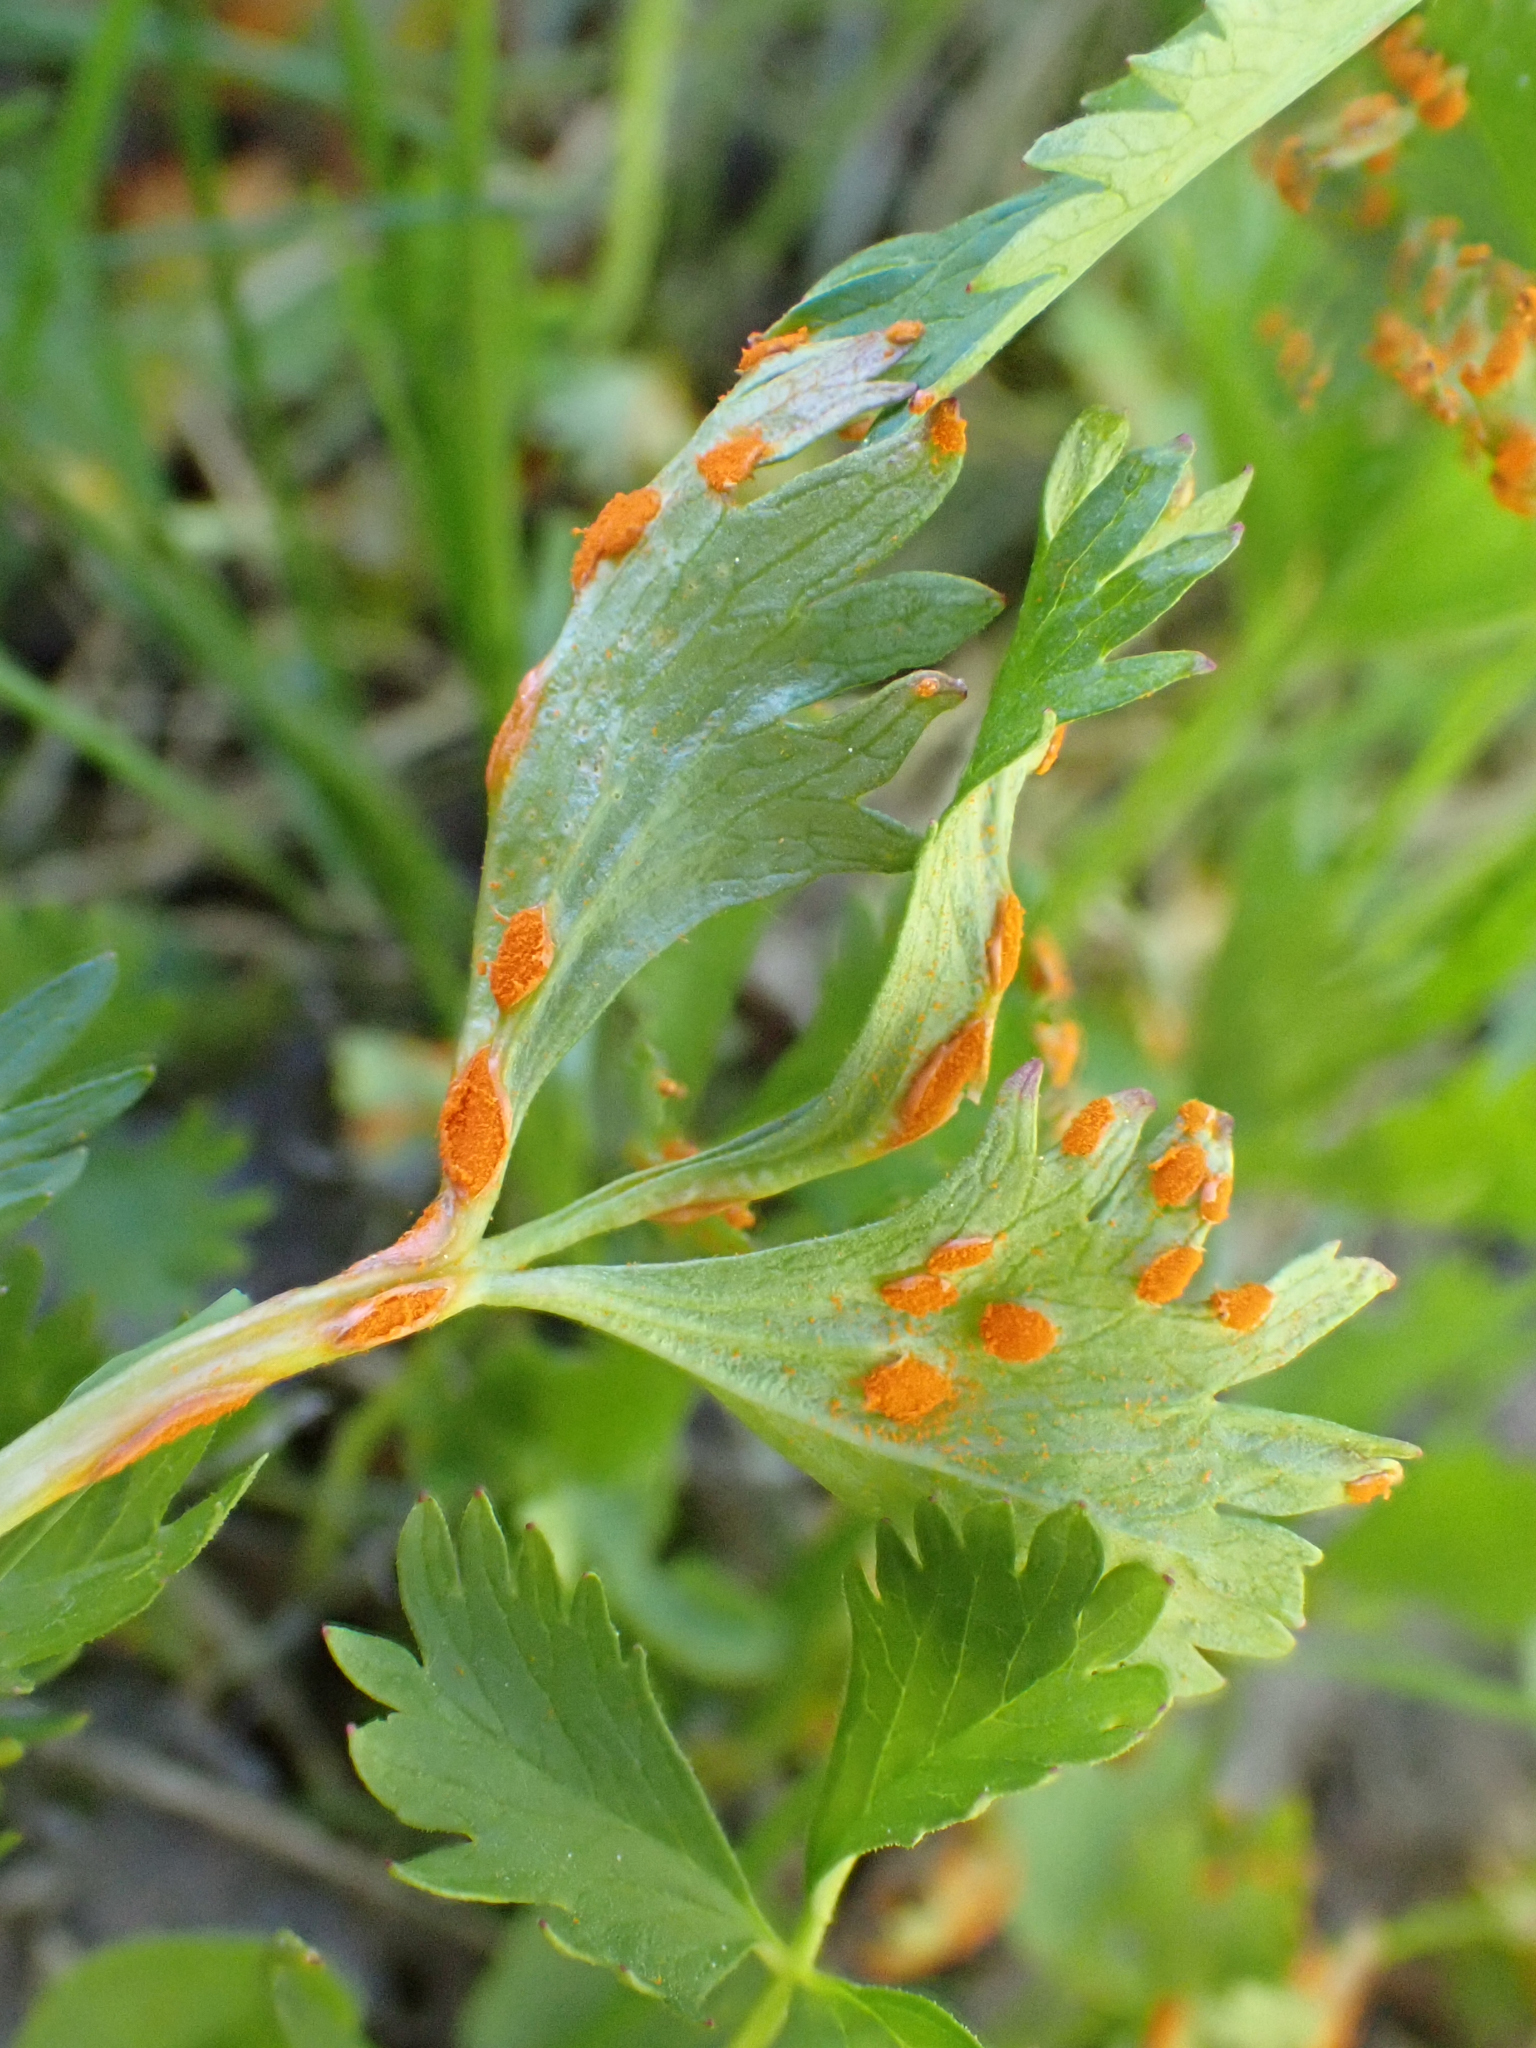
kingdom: Fungi
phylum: Basidiomycota
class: Pucciniomycetes
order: Pucciniales
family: Phragmidiaceae
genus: Phragmidium
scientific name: Phragmidium potentillae
